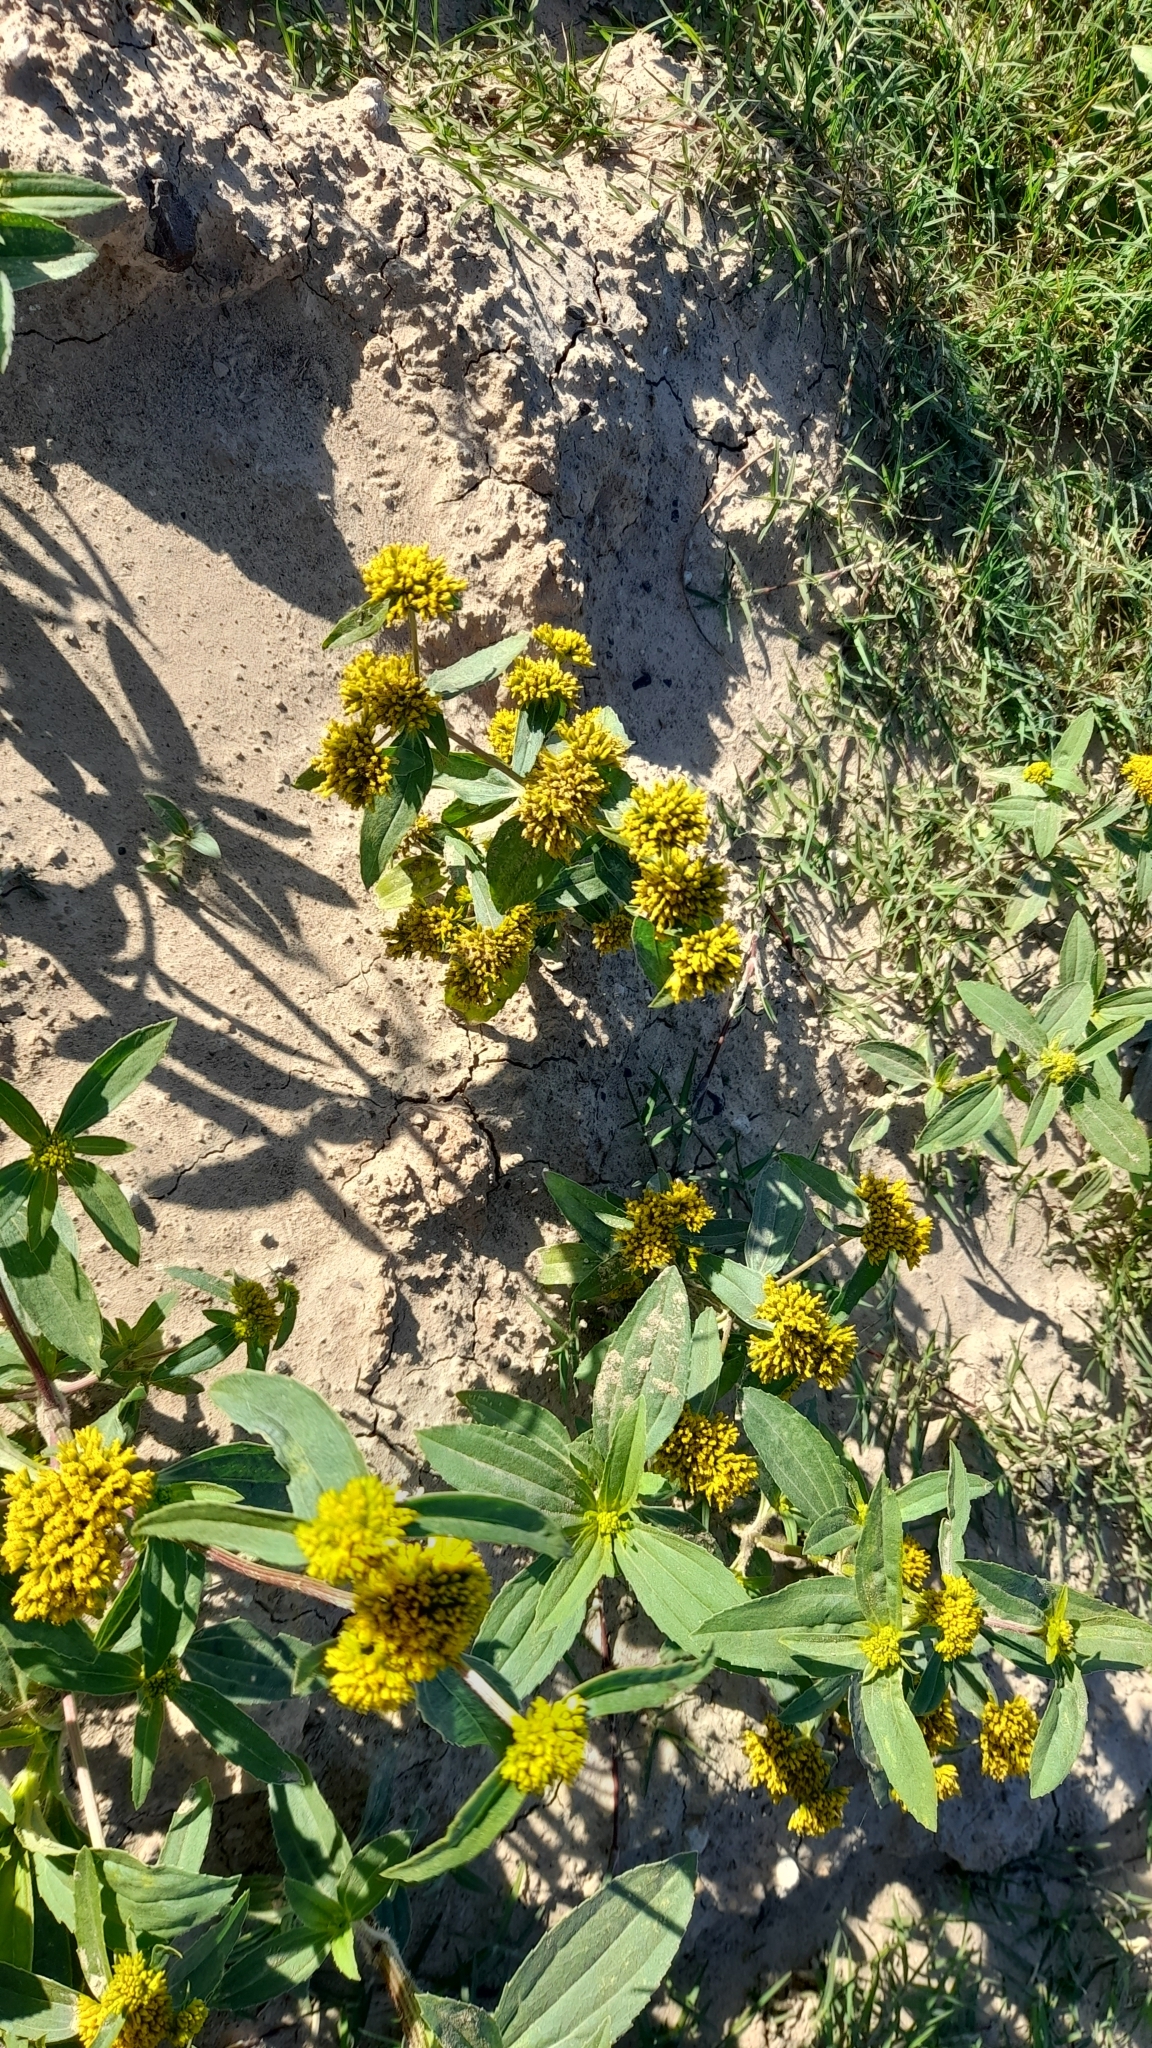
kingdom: Plantae
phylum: Tracheophyta
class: Magnoliopsida
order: Asterales
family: Asteraceae
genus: Flaveria
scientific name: Flaveria bidentis
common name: Coastal plain yellowtops
